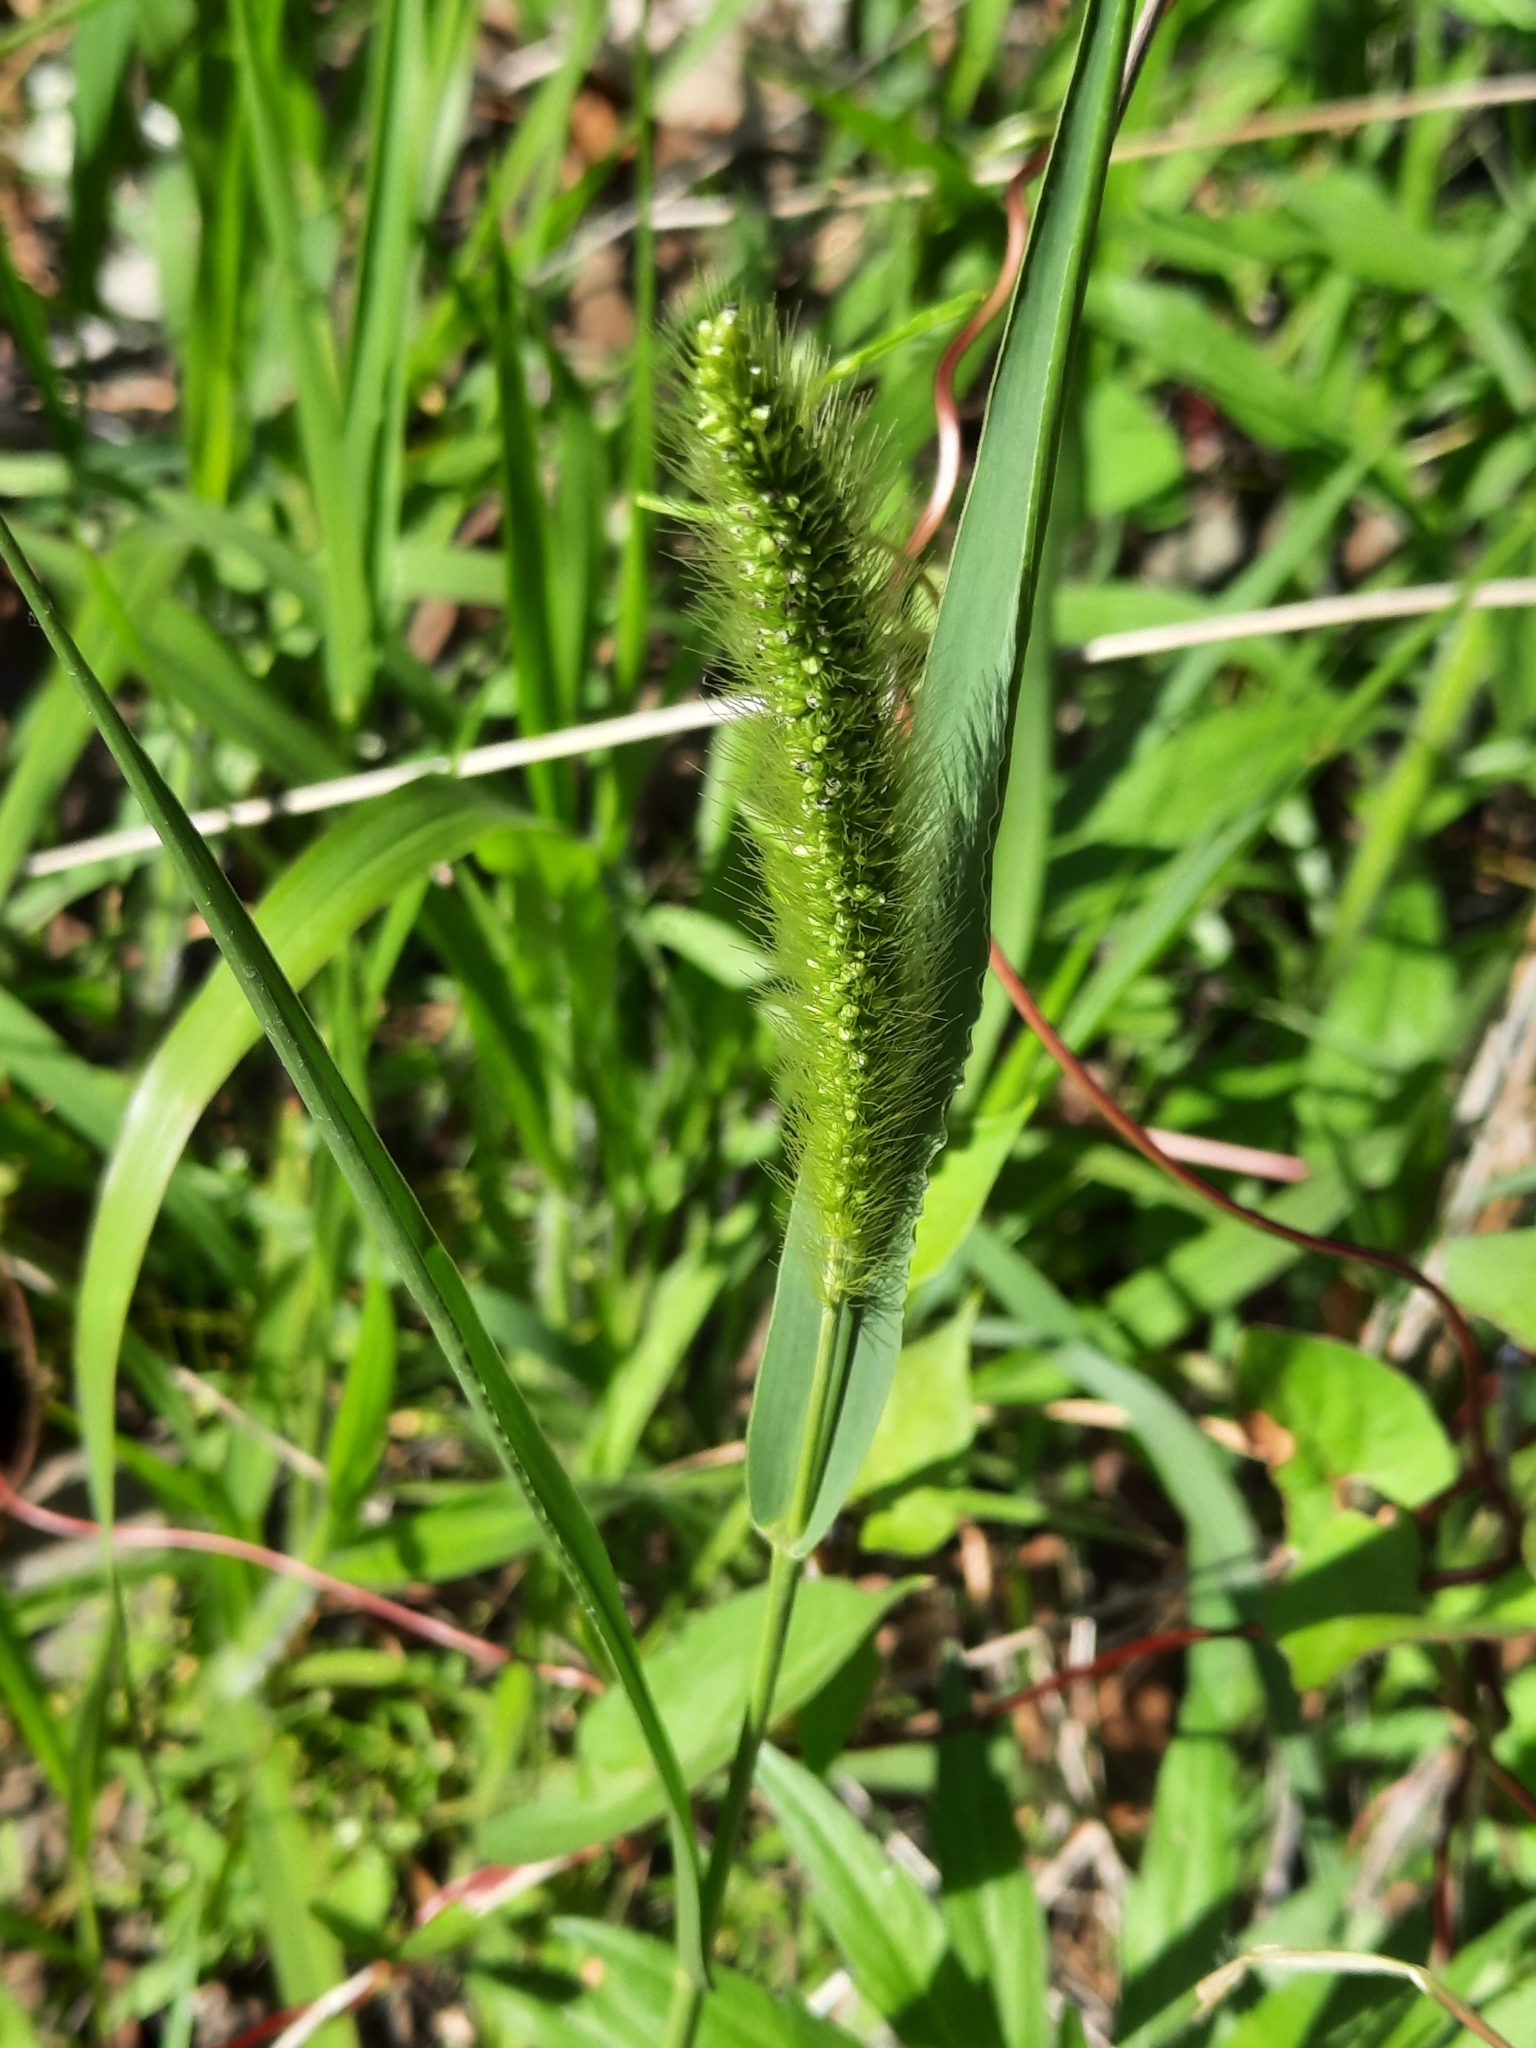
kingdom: Plantae
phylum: Tracheophyta
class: Liliopsida
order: Poales
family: Poaceae
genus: Setaria
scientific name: Setaria viridis
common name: Green bristlegrass
